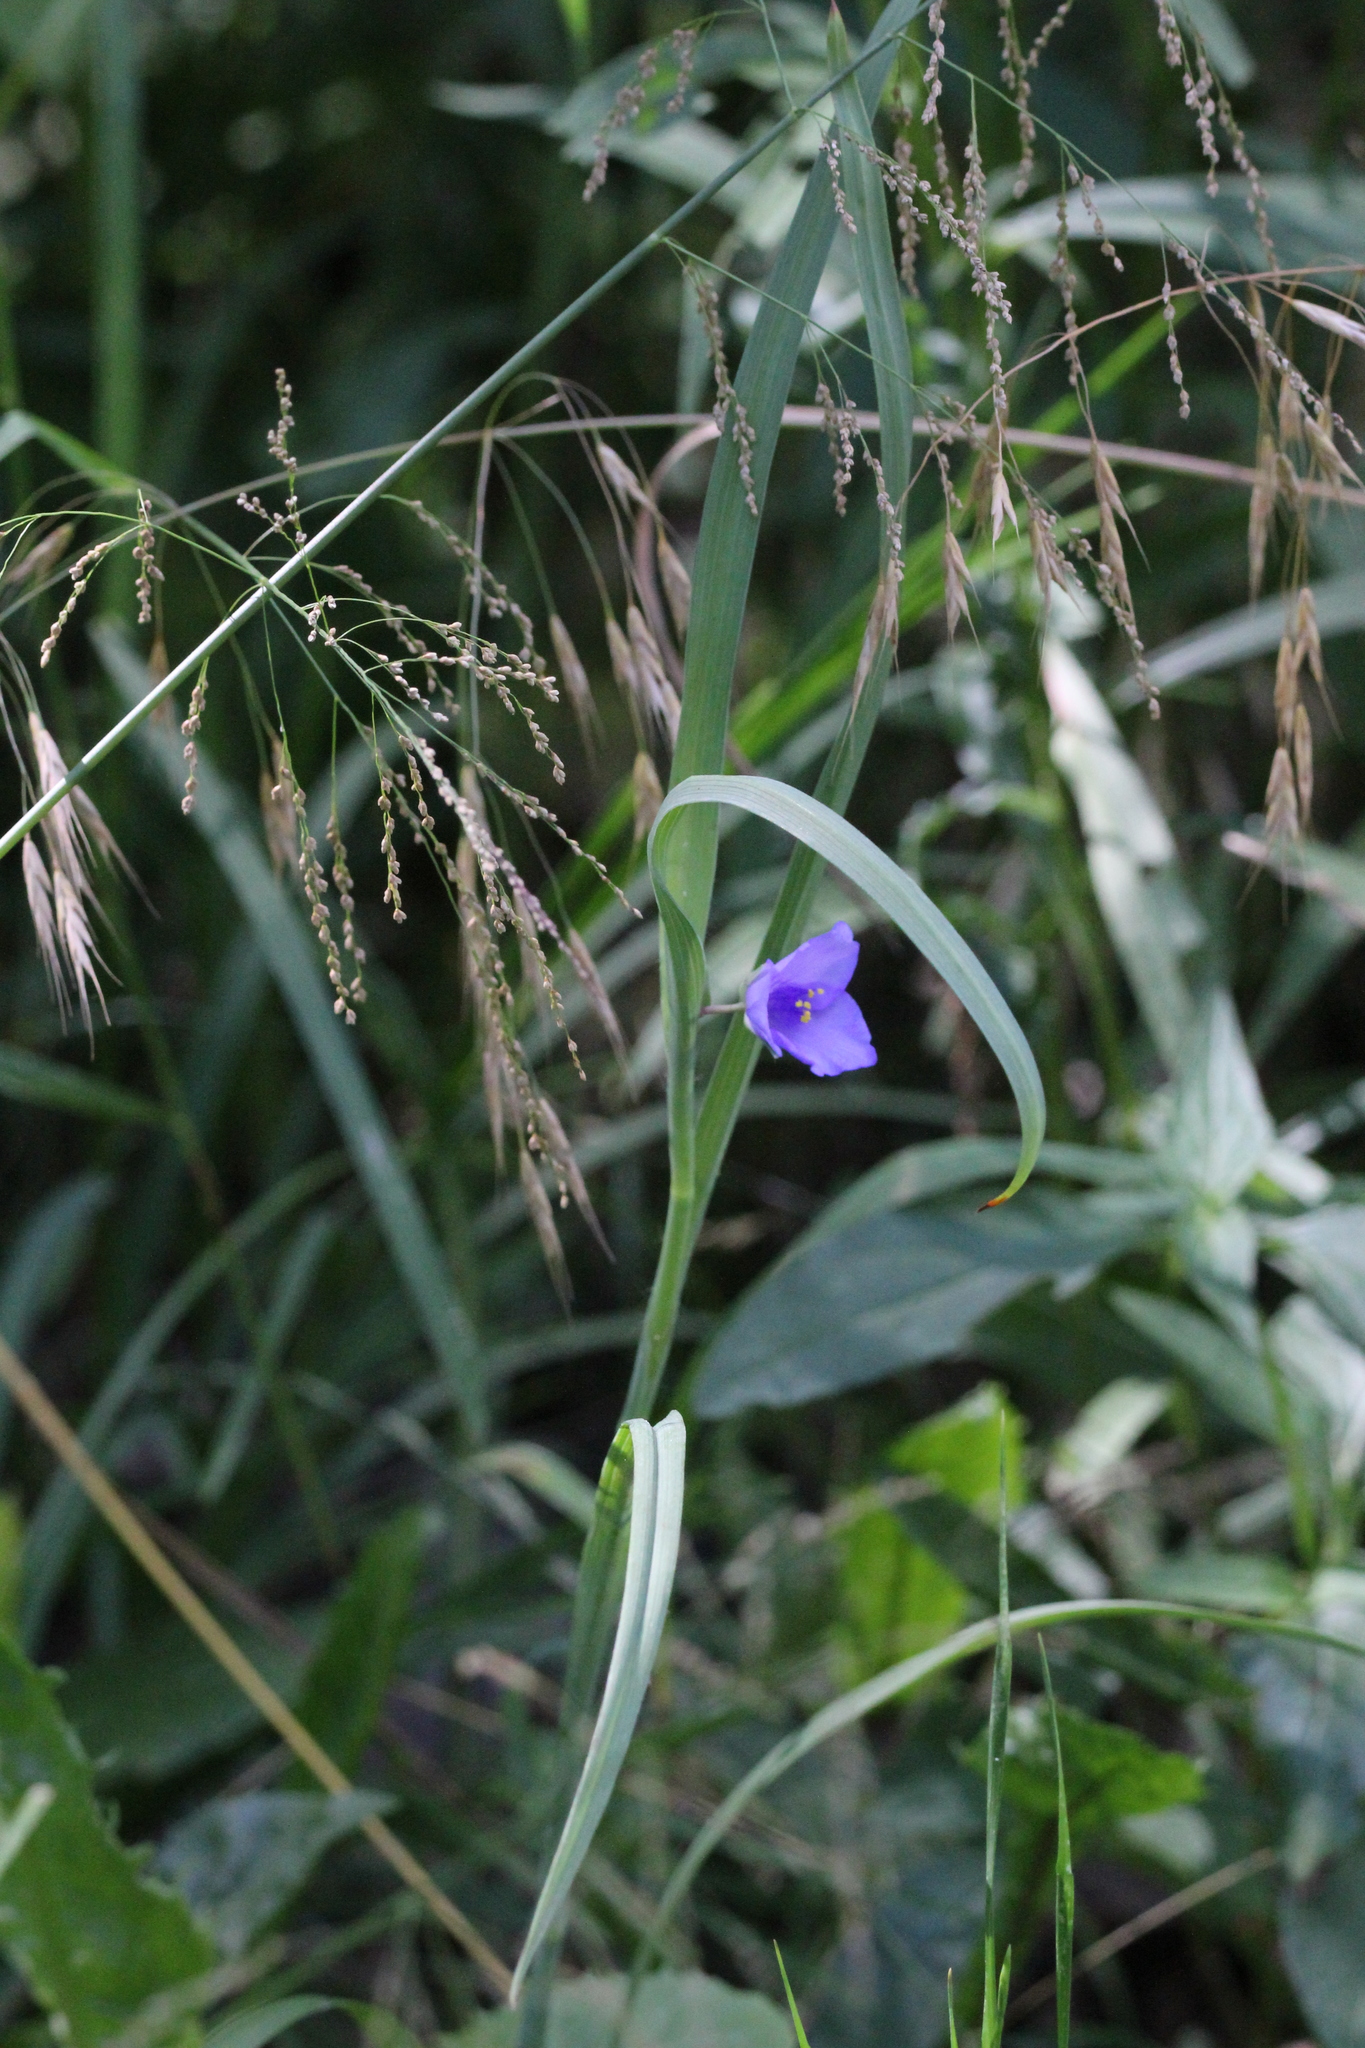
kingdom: Plantae
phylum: Tracheophyta
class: Liliopsida
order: Commelinales
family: Commelinaceae
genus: Tradescantia
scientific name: Tradescantia ohiensis
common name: Ohio spiderwort
